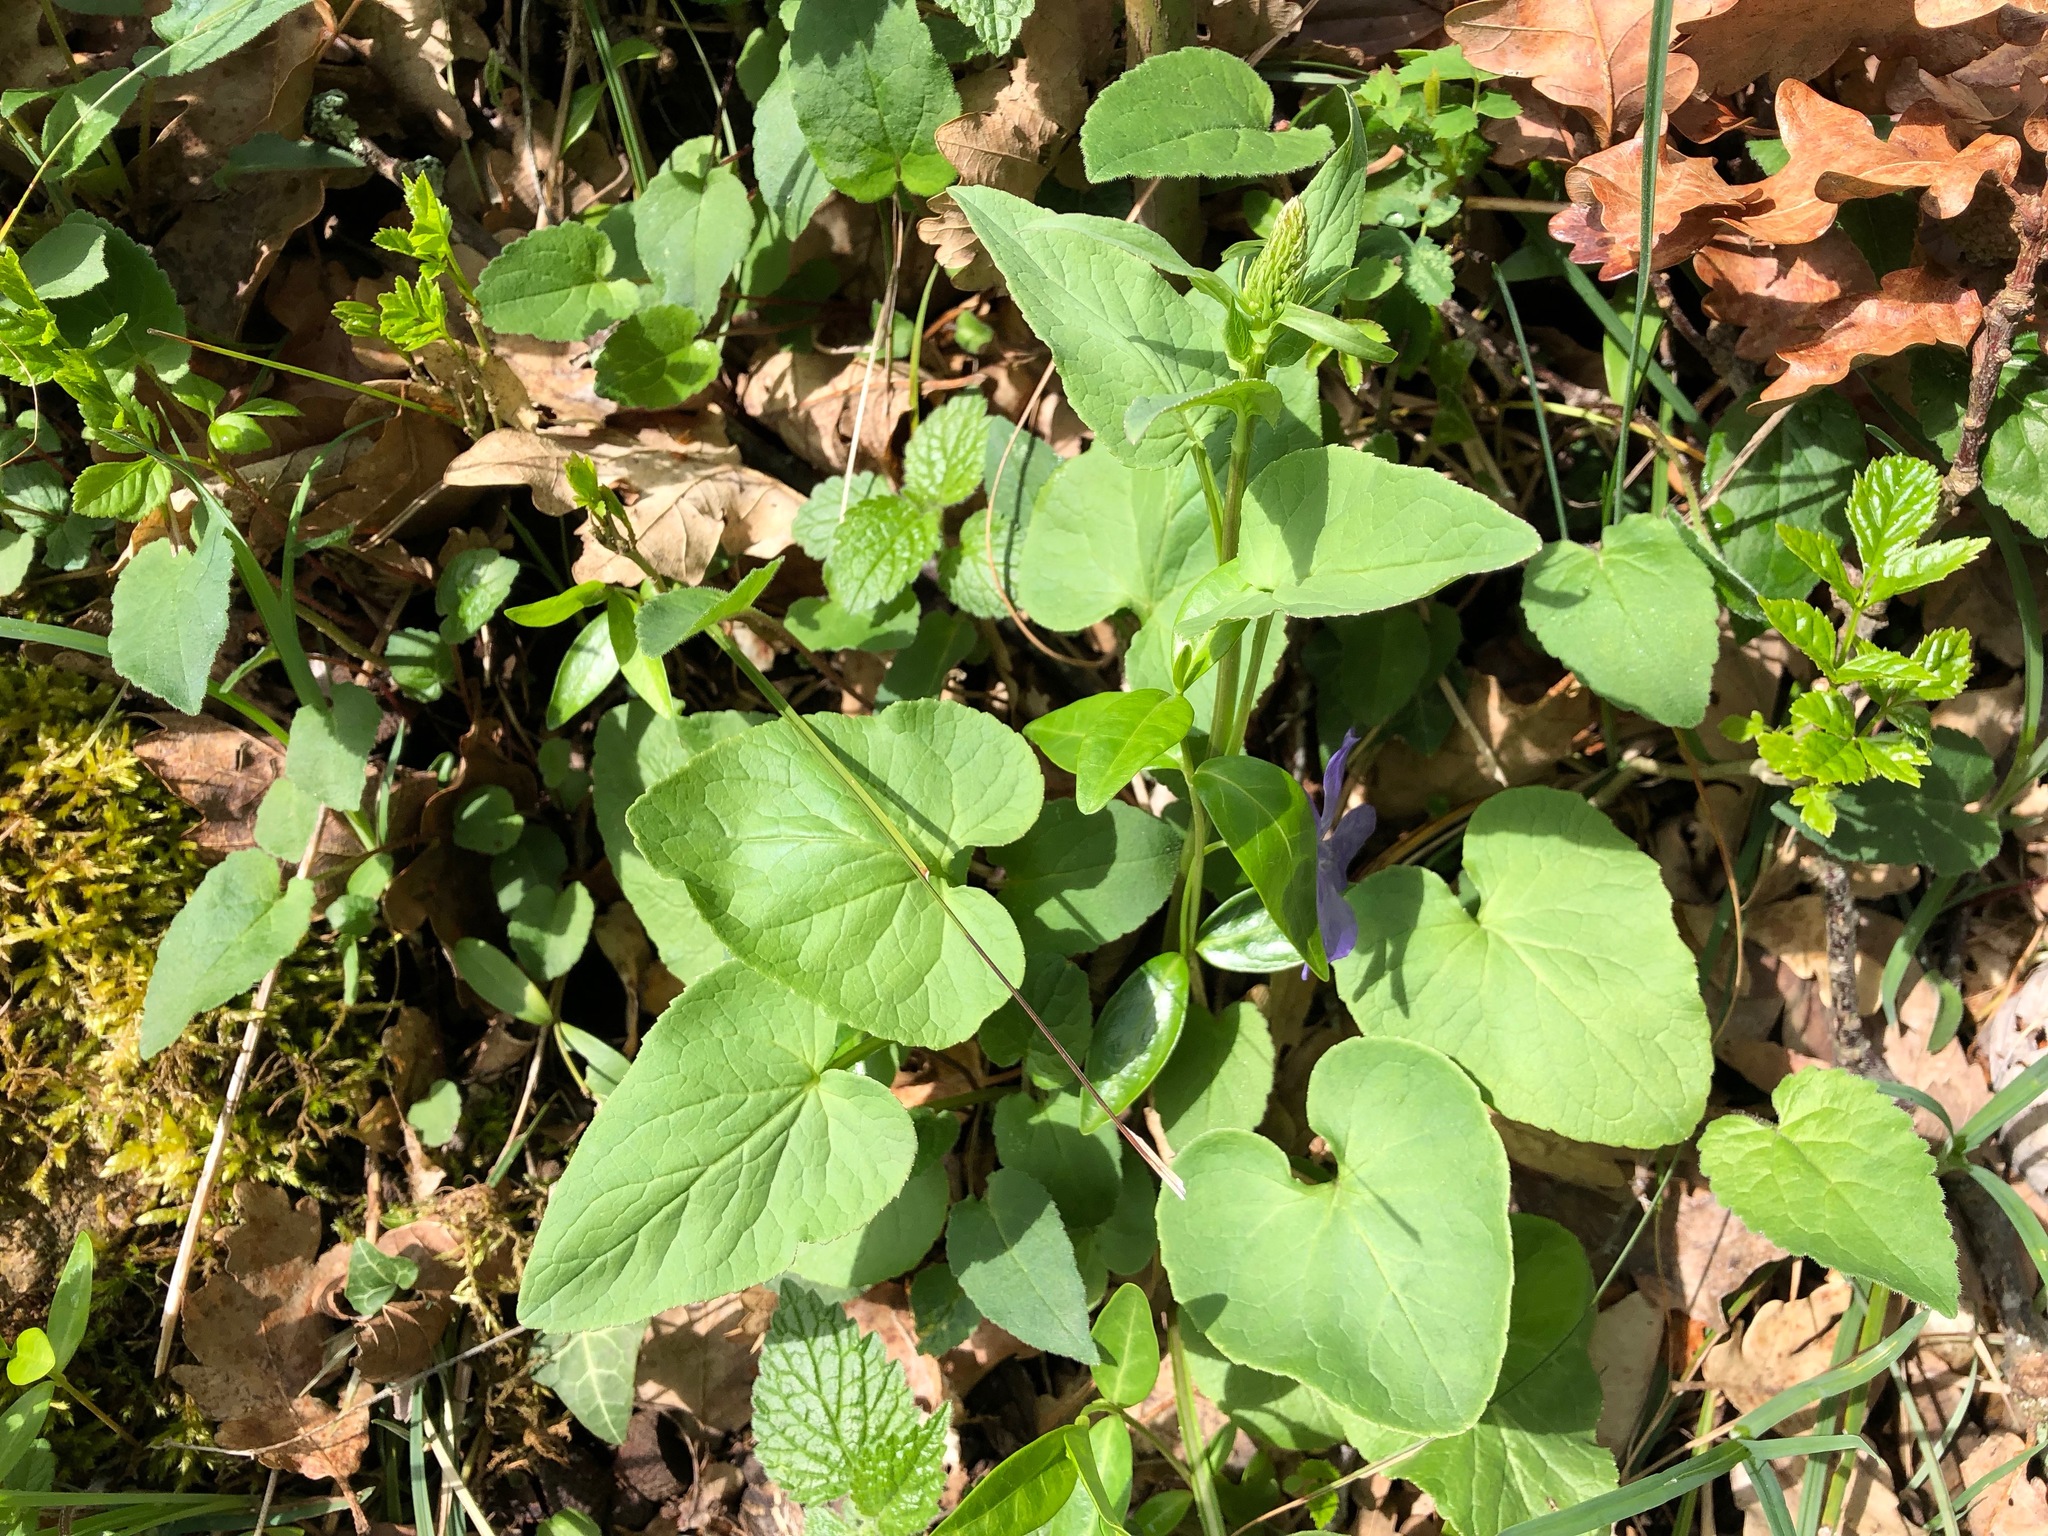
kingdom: Plantae
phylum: Tracheophyta
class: Magnoliopsida
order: Asterales
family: Campanulaceae
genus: Phyteuma
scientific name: Phyteuma spicatum
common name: Spiked rampion
